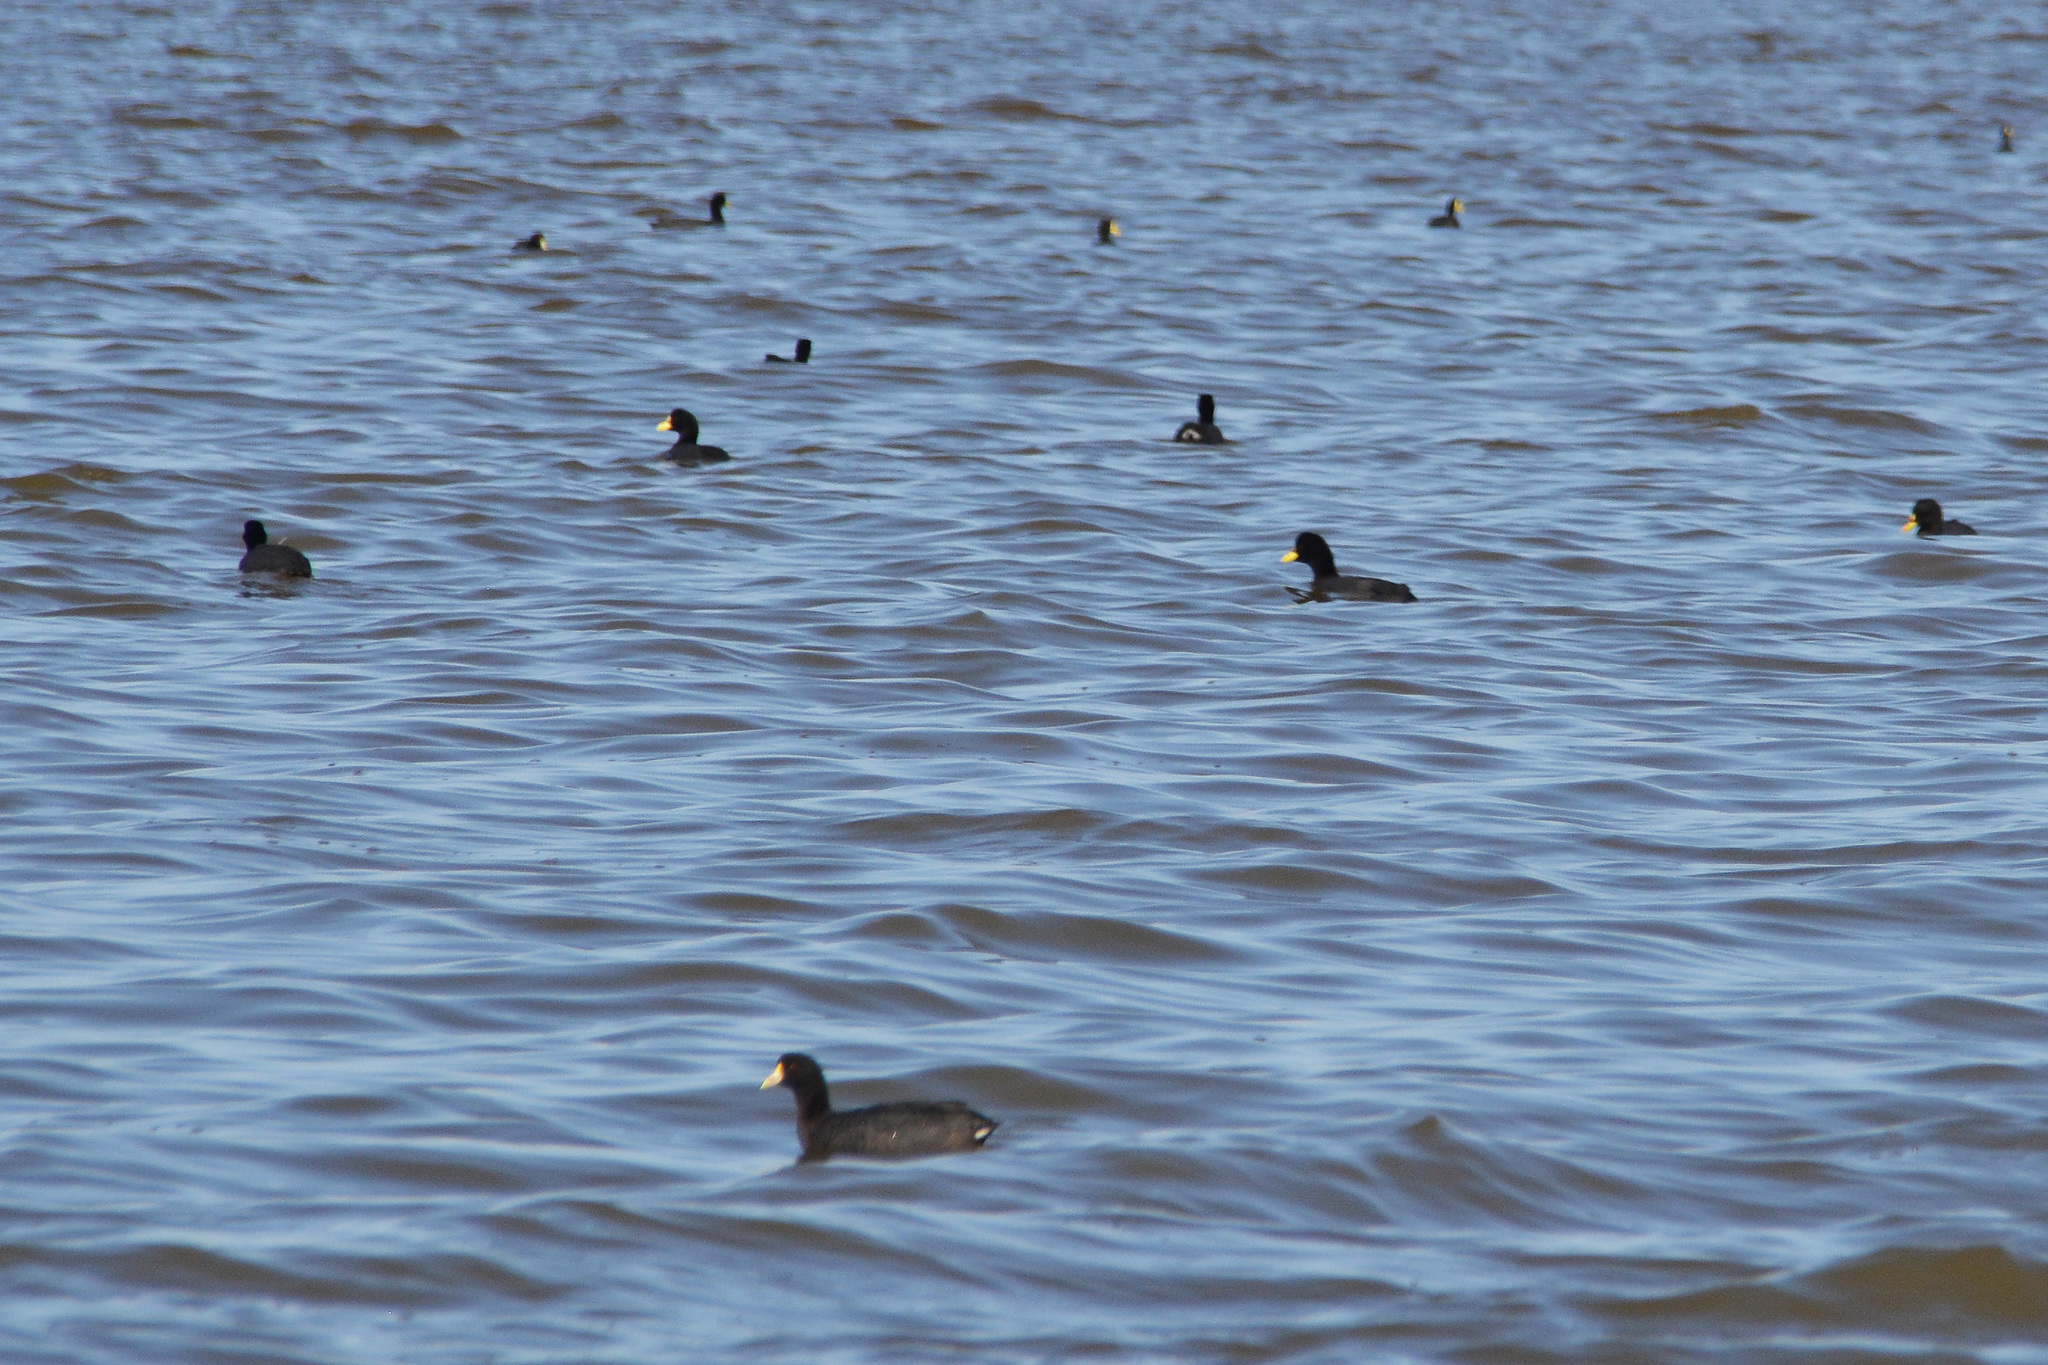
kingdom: Animalia
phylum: Chordata
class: Aves
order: Gruiformes
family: Rallidae
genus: Fulica
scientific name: Fulica armillata
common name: Red-gartered coot
